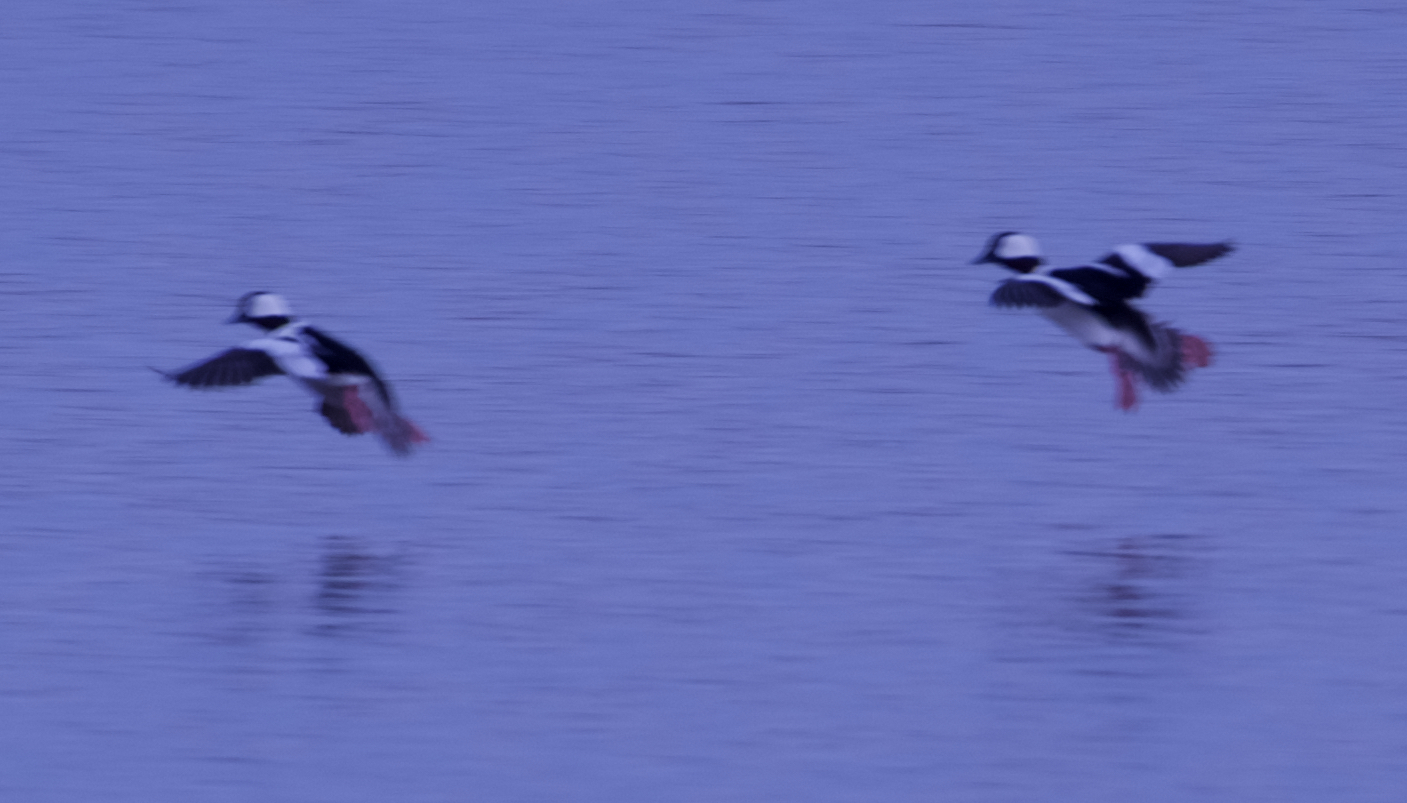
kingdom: Animalia
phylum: Chordata
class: Aves
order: Anseriformes
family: Anatidae
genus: Bucephala
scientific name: Bucephala albeola
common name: Bufflehead
